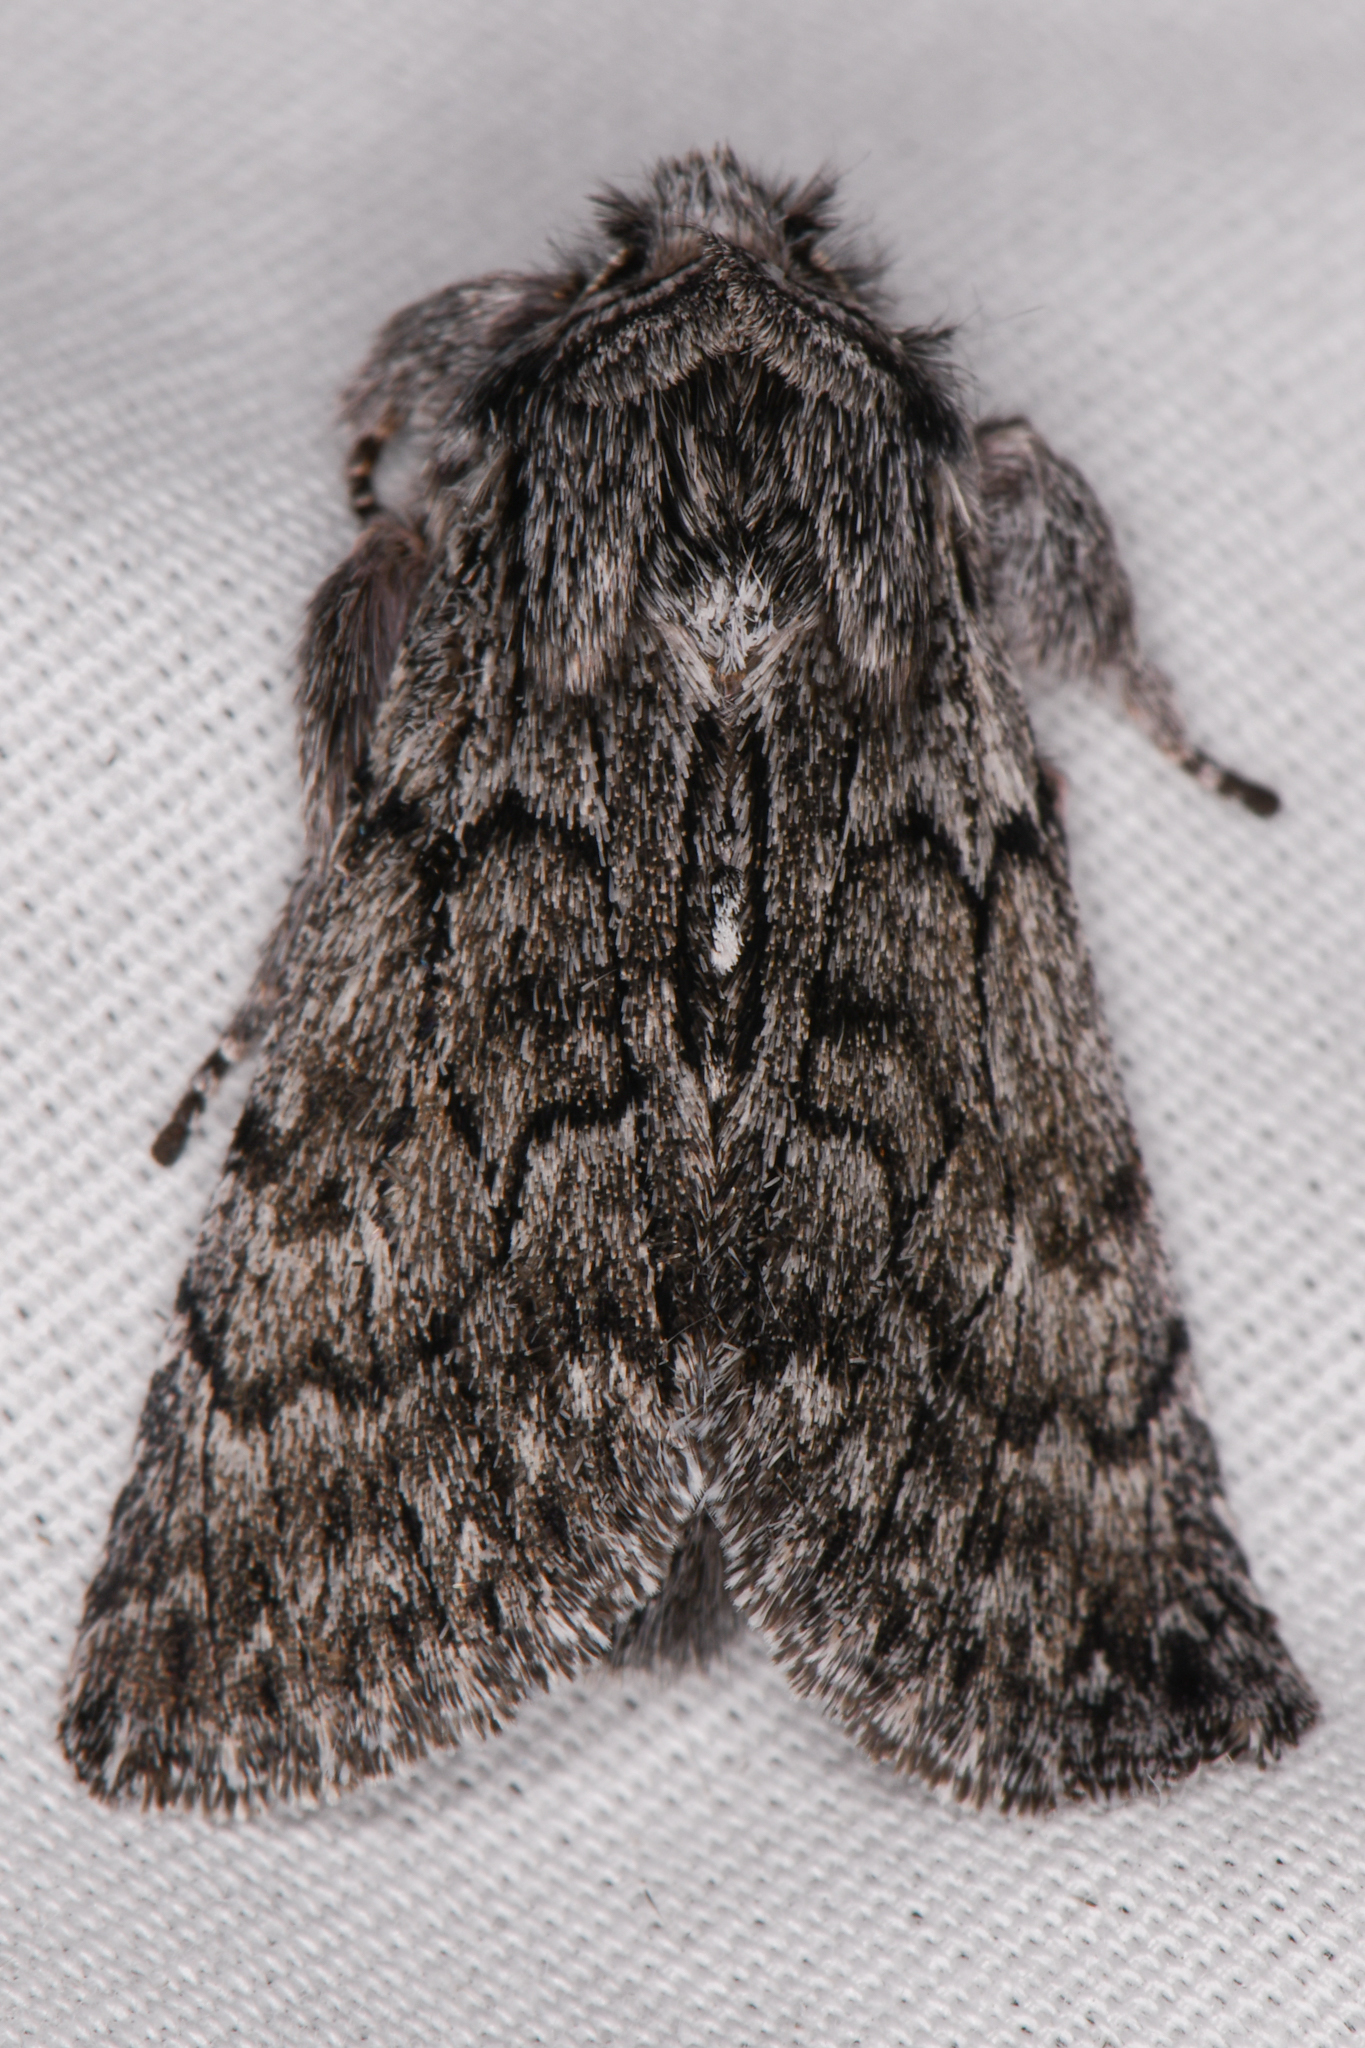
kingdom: Animalia
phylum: Arthropoda
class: Insecta
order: Lepidoptera
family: Noctuidae
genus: Pleromelloida
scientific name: Pleromelloida conserta
